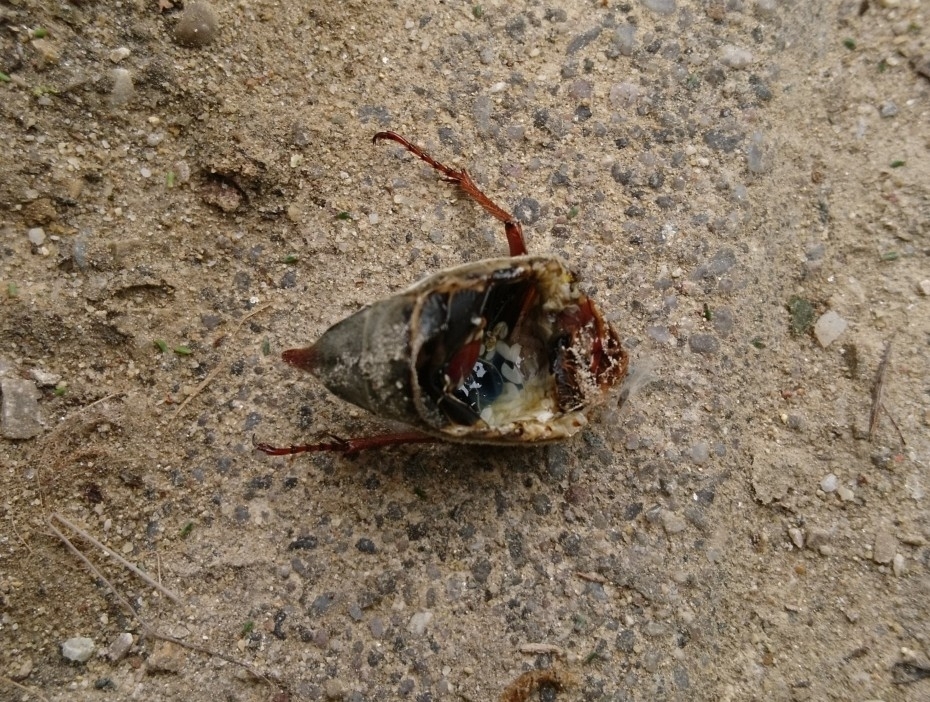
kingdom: Animalia
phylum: Arthropoda
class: Insecta
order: Coleoptera
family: Scarabaeidae
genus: Melolontha
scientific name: Melolontha melolontha
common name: Cockchafer maybeetle
